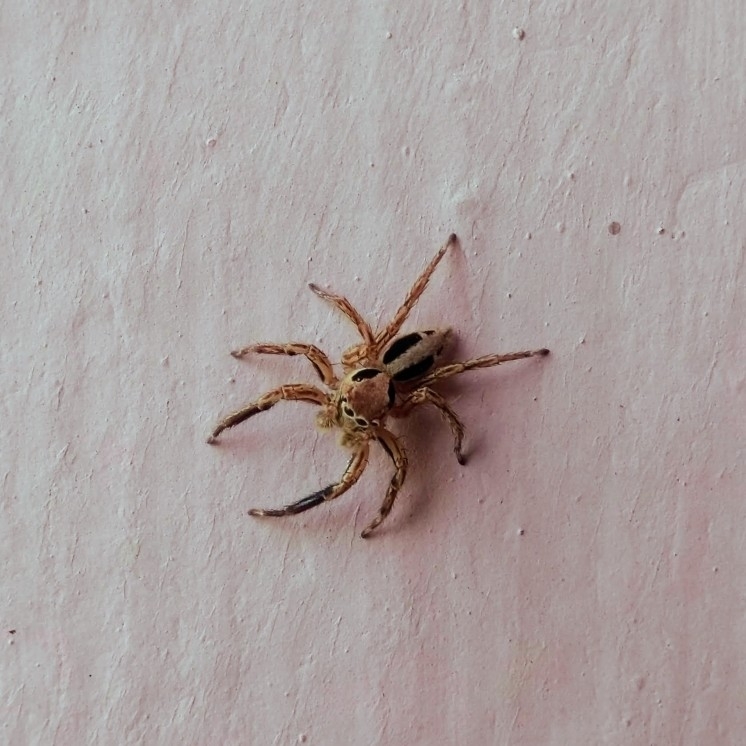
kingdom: Animalia
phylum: Arthropoda
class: Arachnida
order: Araneae
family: Salticidae
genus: Plexippus
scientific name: Plexippus petersi
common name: Jumping spider
